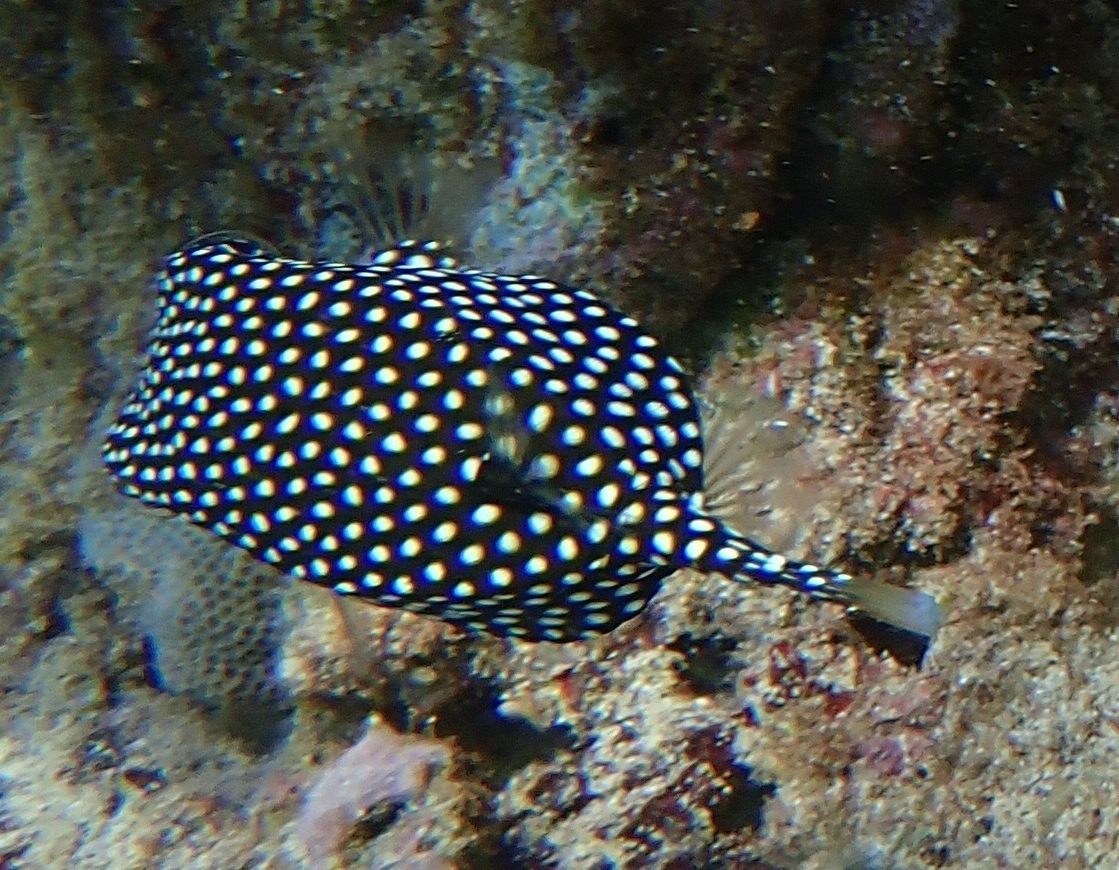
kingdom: Animalia
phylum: Chordata
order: Tetraodontiformes
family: Ostraciidae
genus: Ostracion
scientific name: Ostracion meleagris
